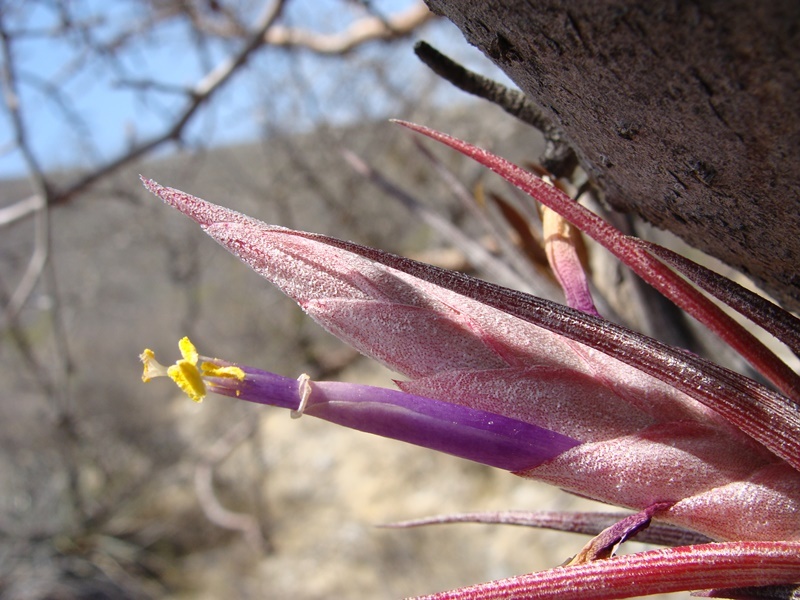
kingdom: Plantae
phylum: Tracheophyta
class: Liliopsida
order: Poales
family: Bromeliaceae
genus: Tillandsia
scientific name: Tillandsia circinnatioides
